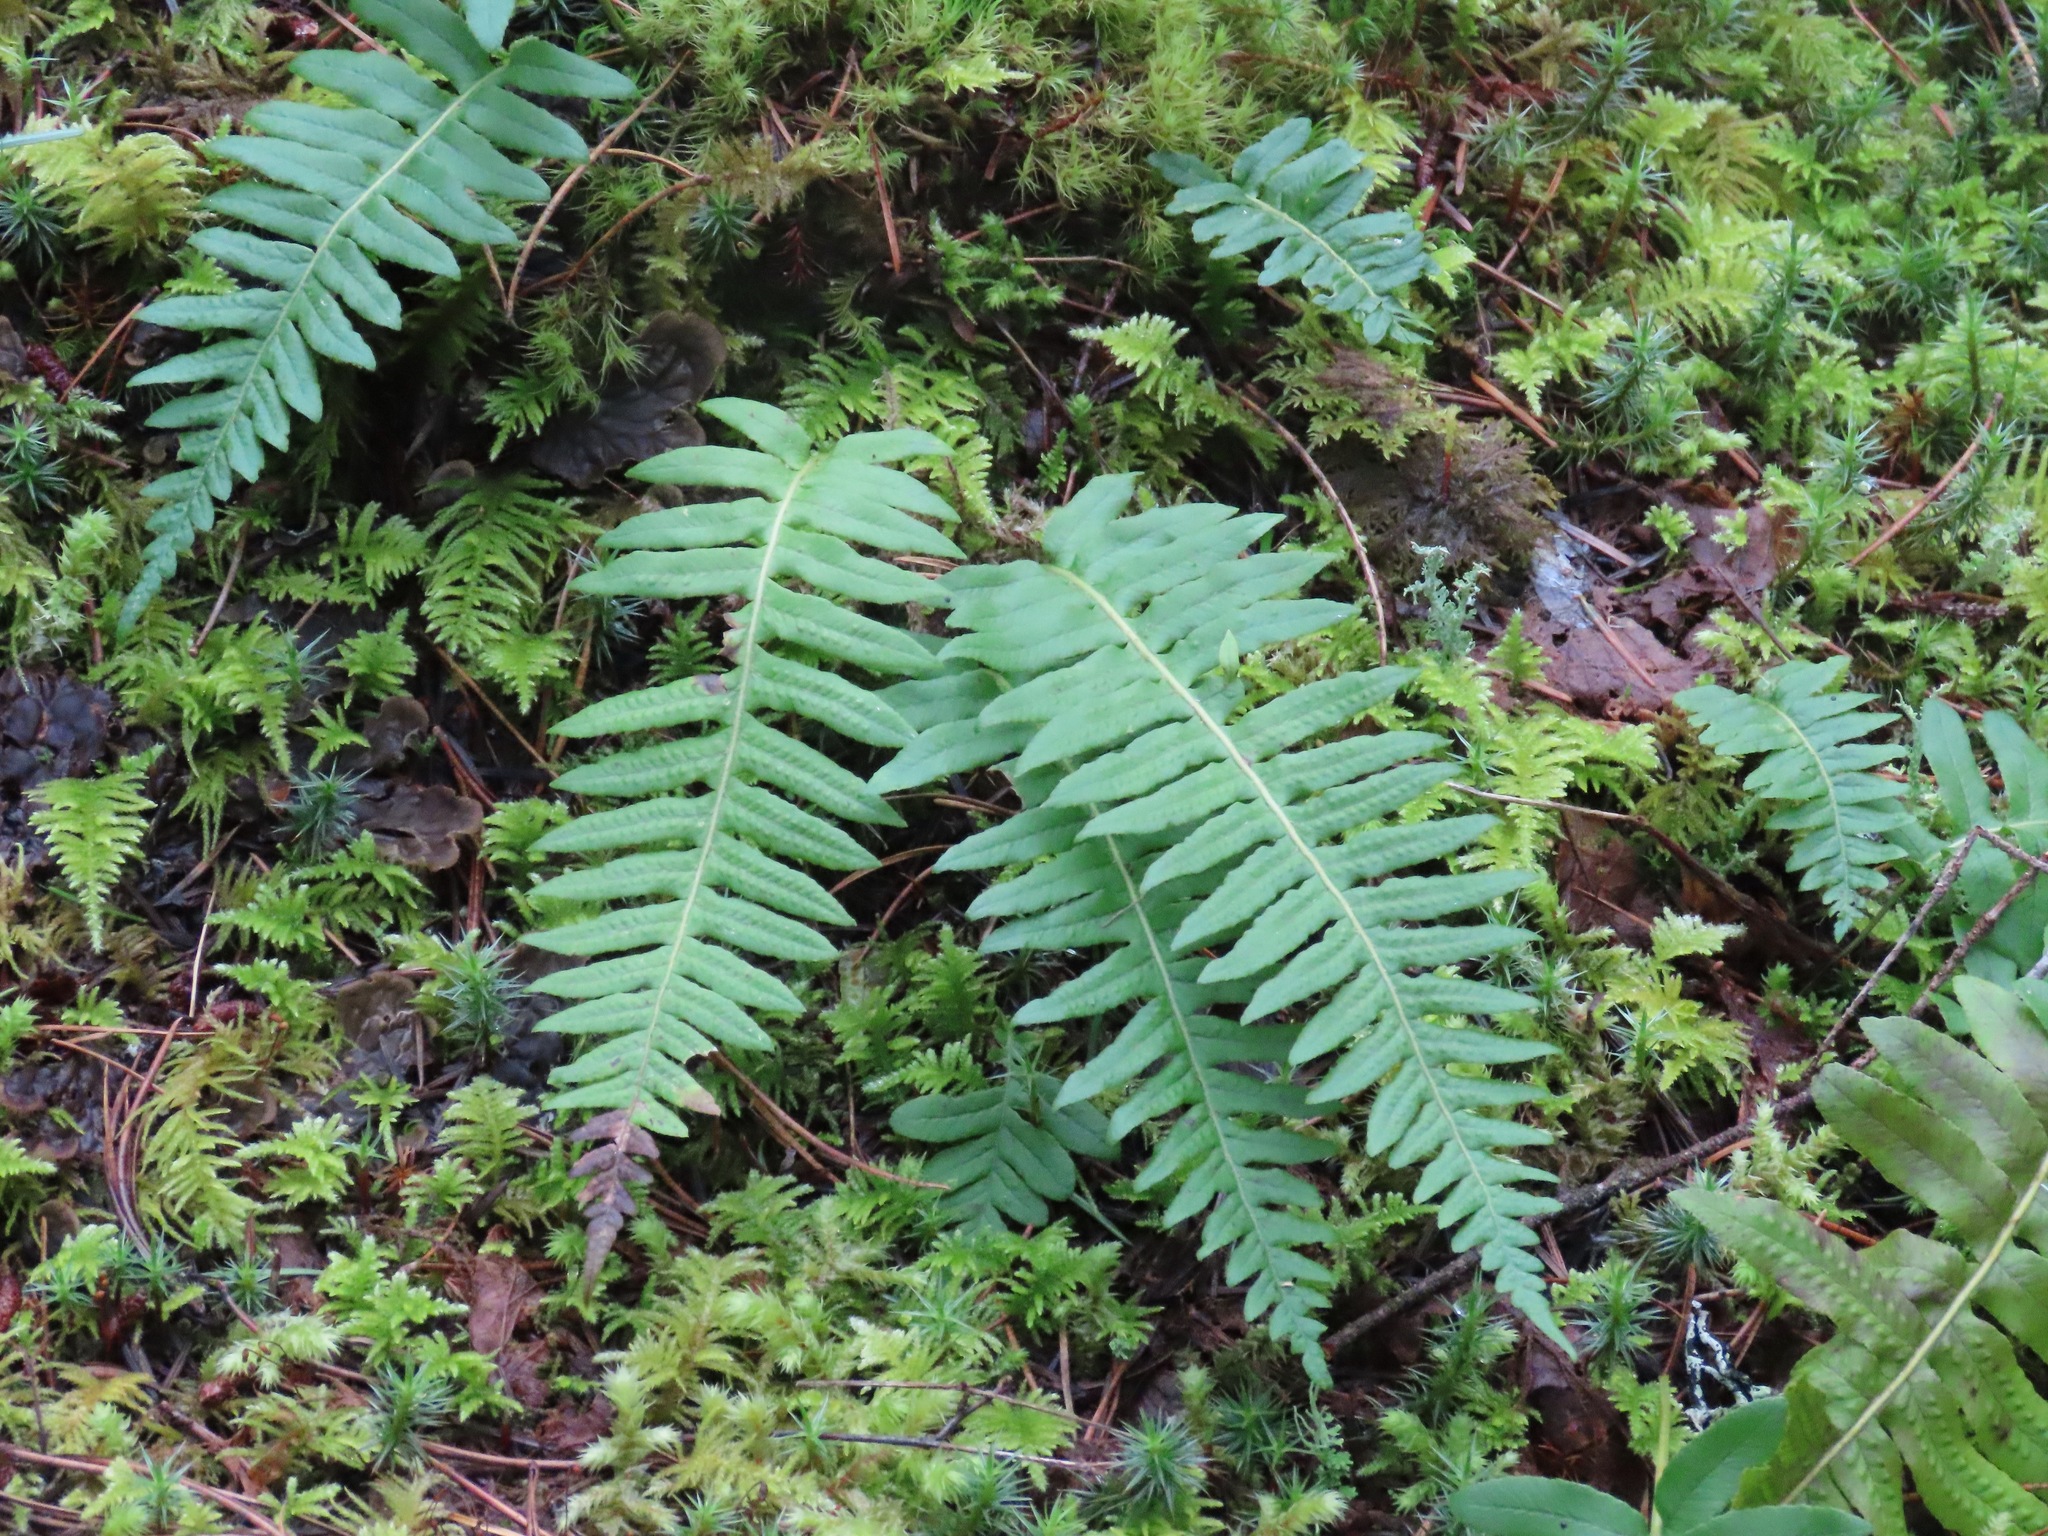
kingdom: Plantae
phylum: Tracheophyta
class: Polypodiopsida
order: Polypodiales
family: Polypodiaceae
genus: Polypodium
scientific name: Polypodium glycyrrhiza
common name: Licorice fern
